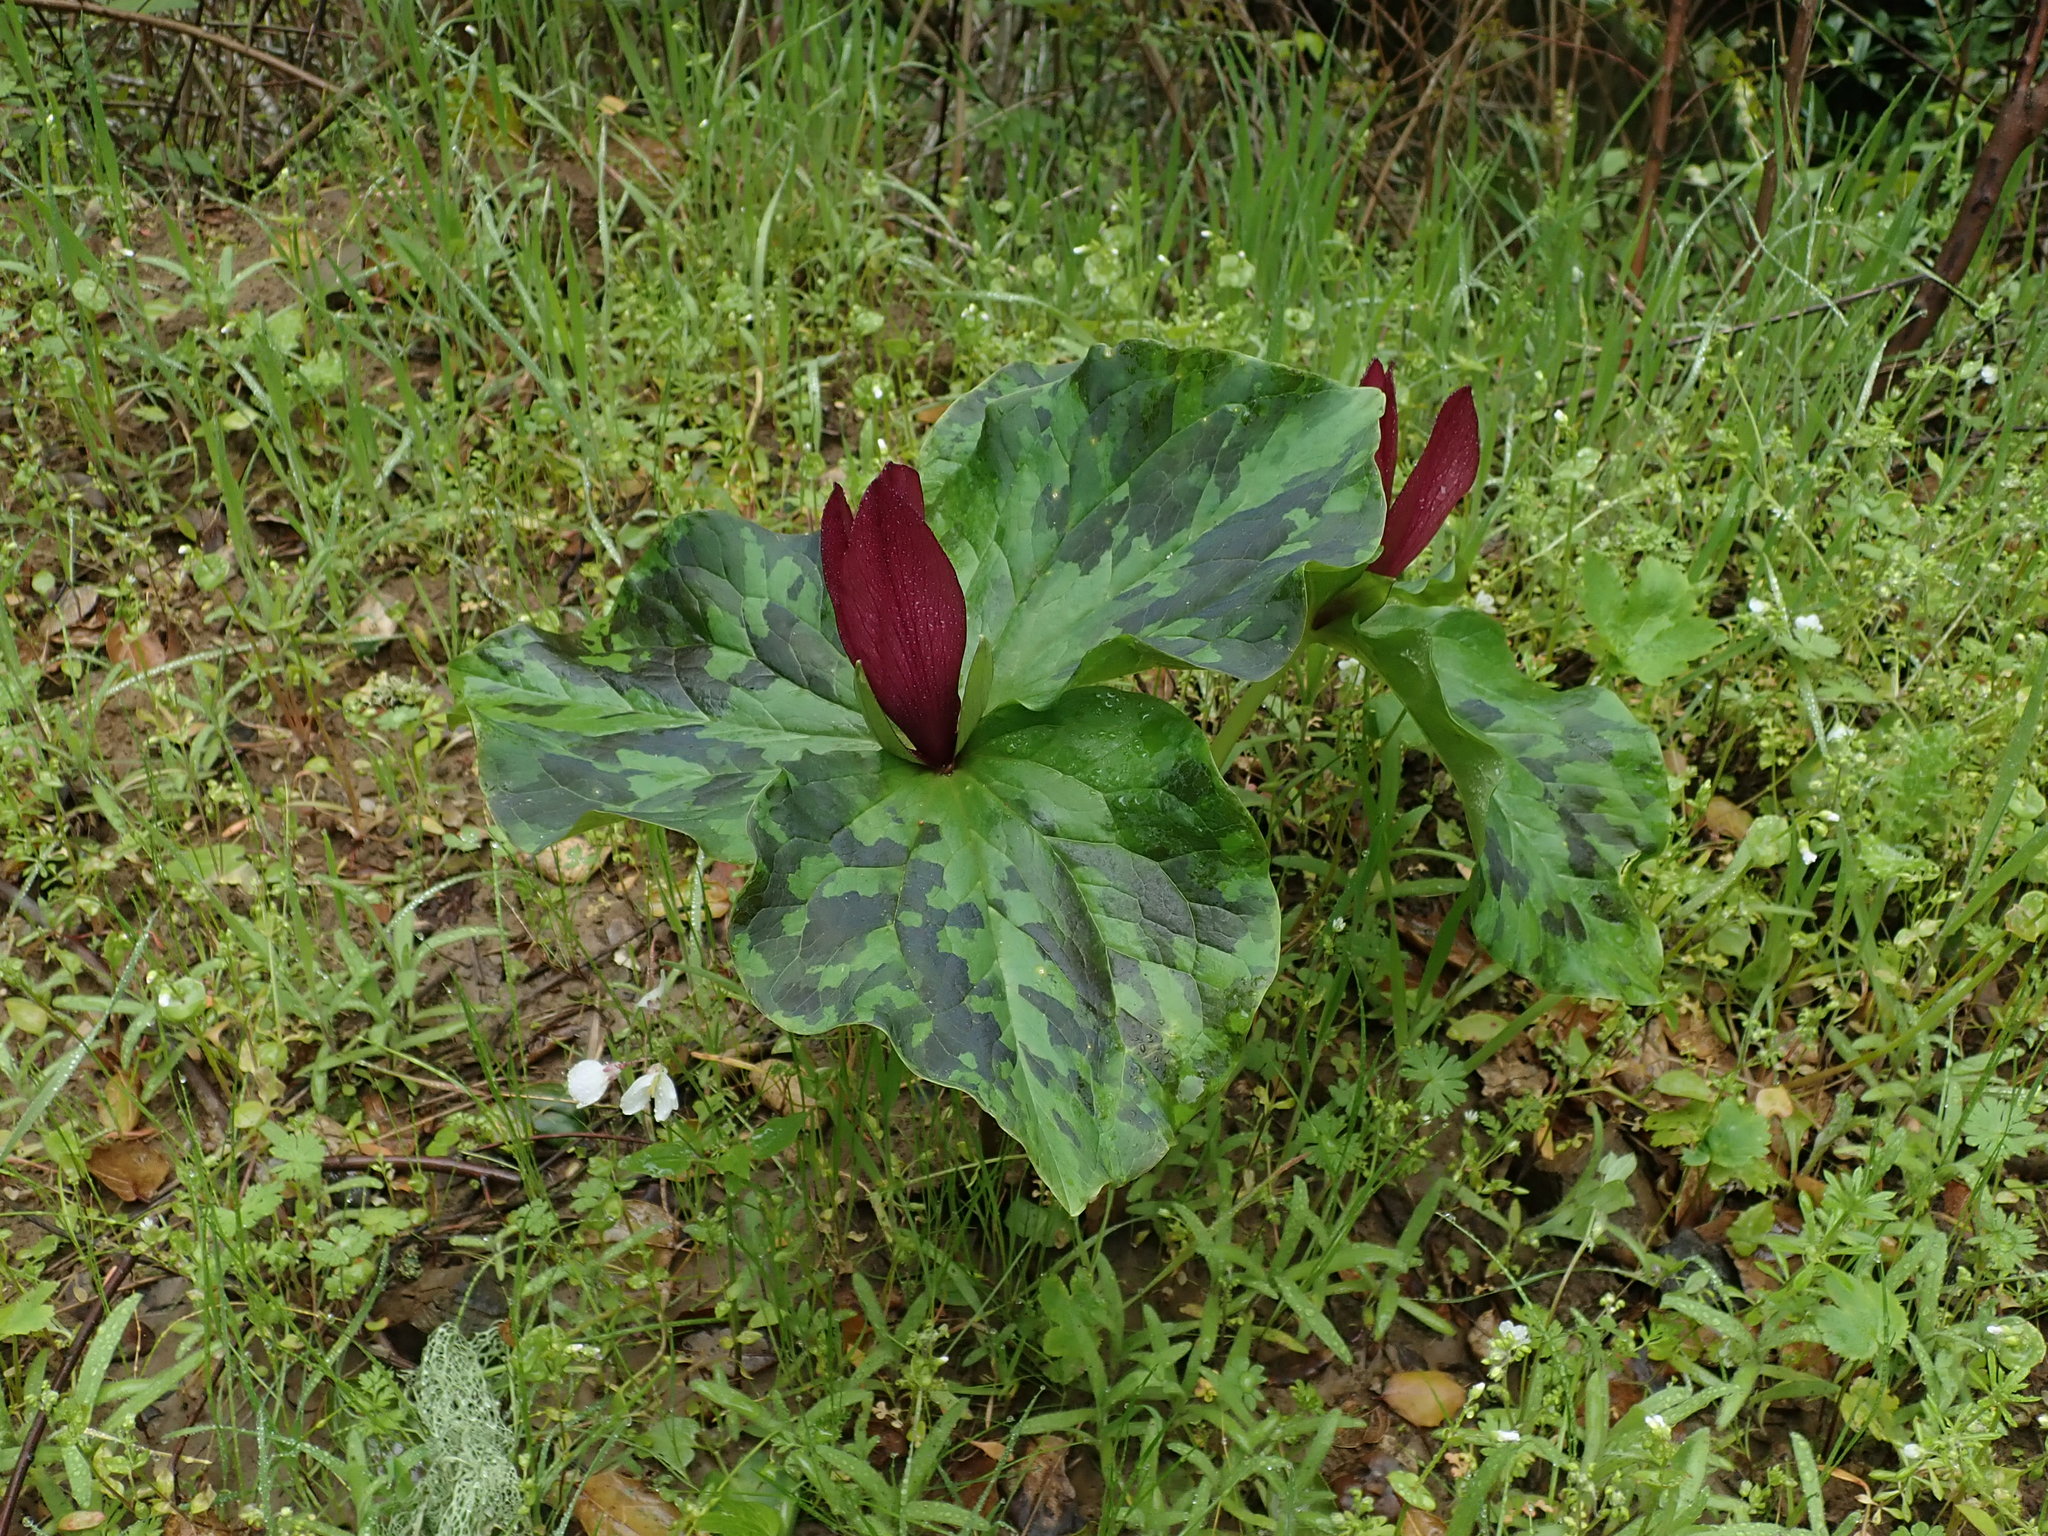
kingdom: Plantae
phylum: Tracheophyta
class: Liliopsida
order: Liliales
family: Melanthiaceae
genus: Trillium
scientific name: Trillium chloropetalum
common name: Giant trillium
